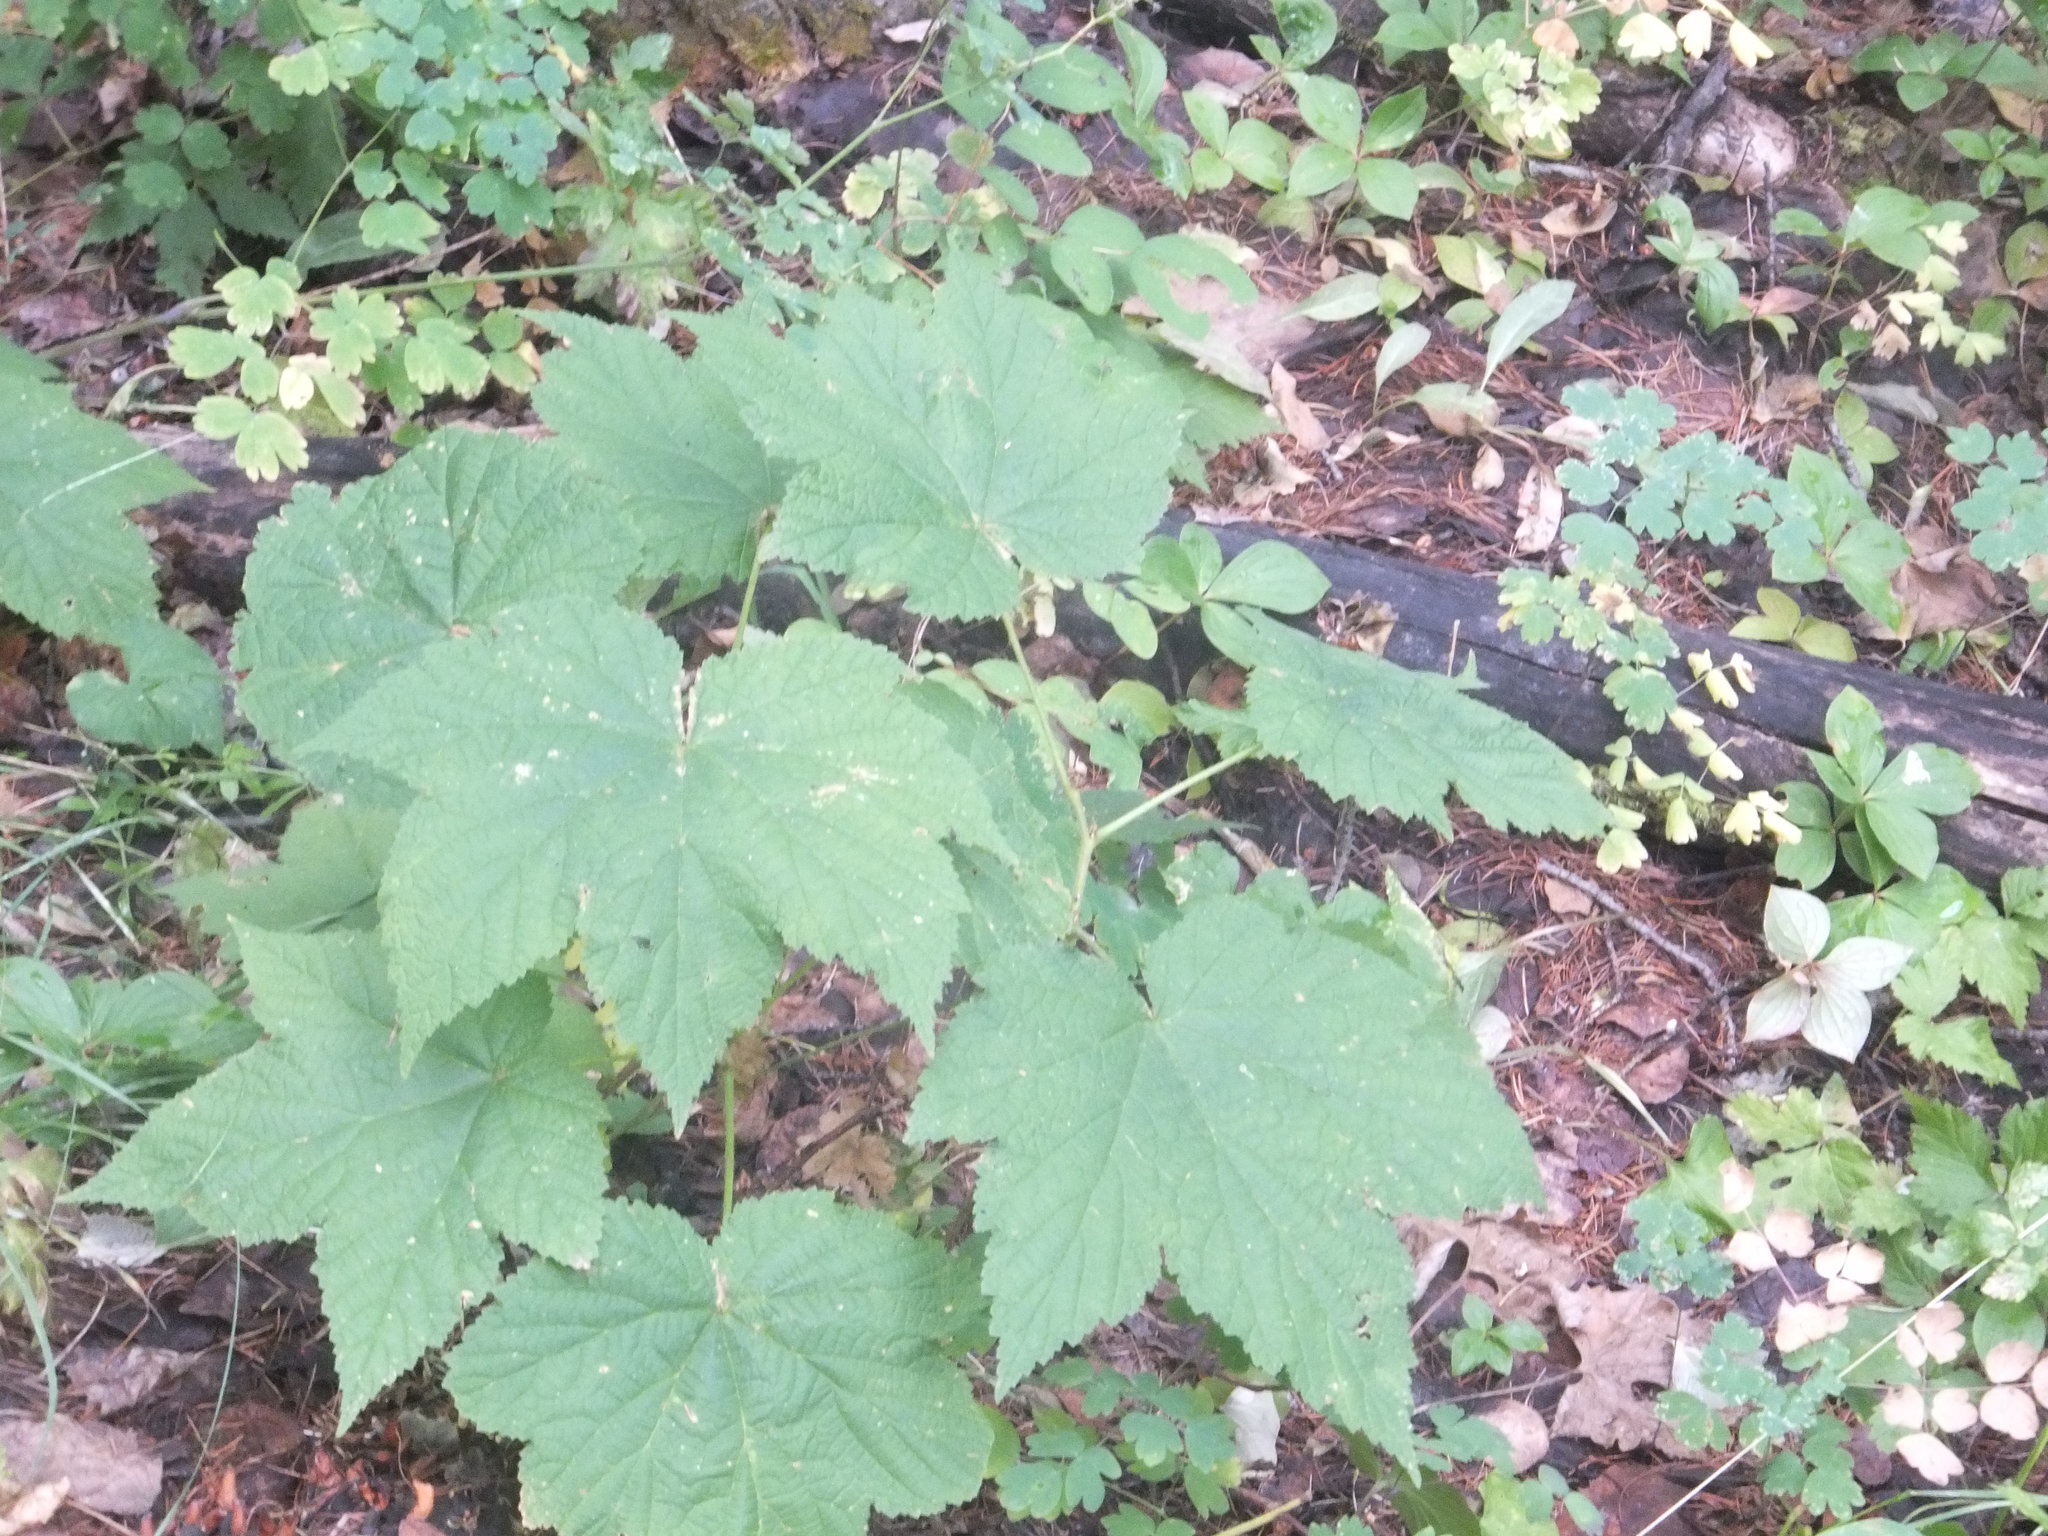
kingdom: Plantae
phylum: Tracheophyta
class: Magnoliopsida
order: Rosales
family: Rosaceae
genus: Rubus
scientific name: Rubus parviflorus
